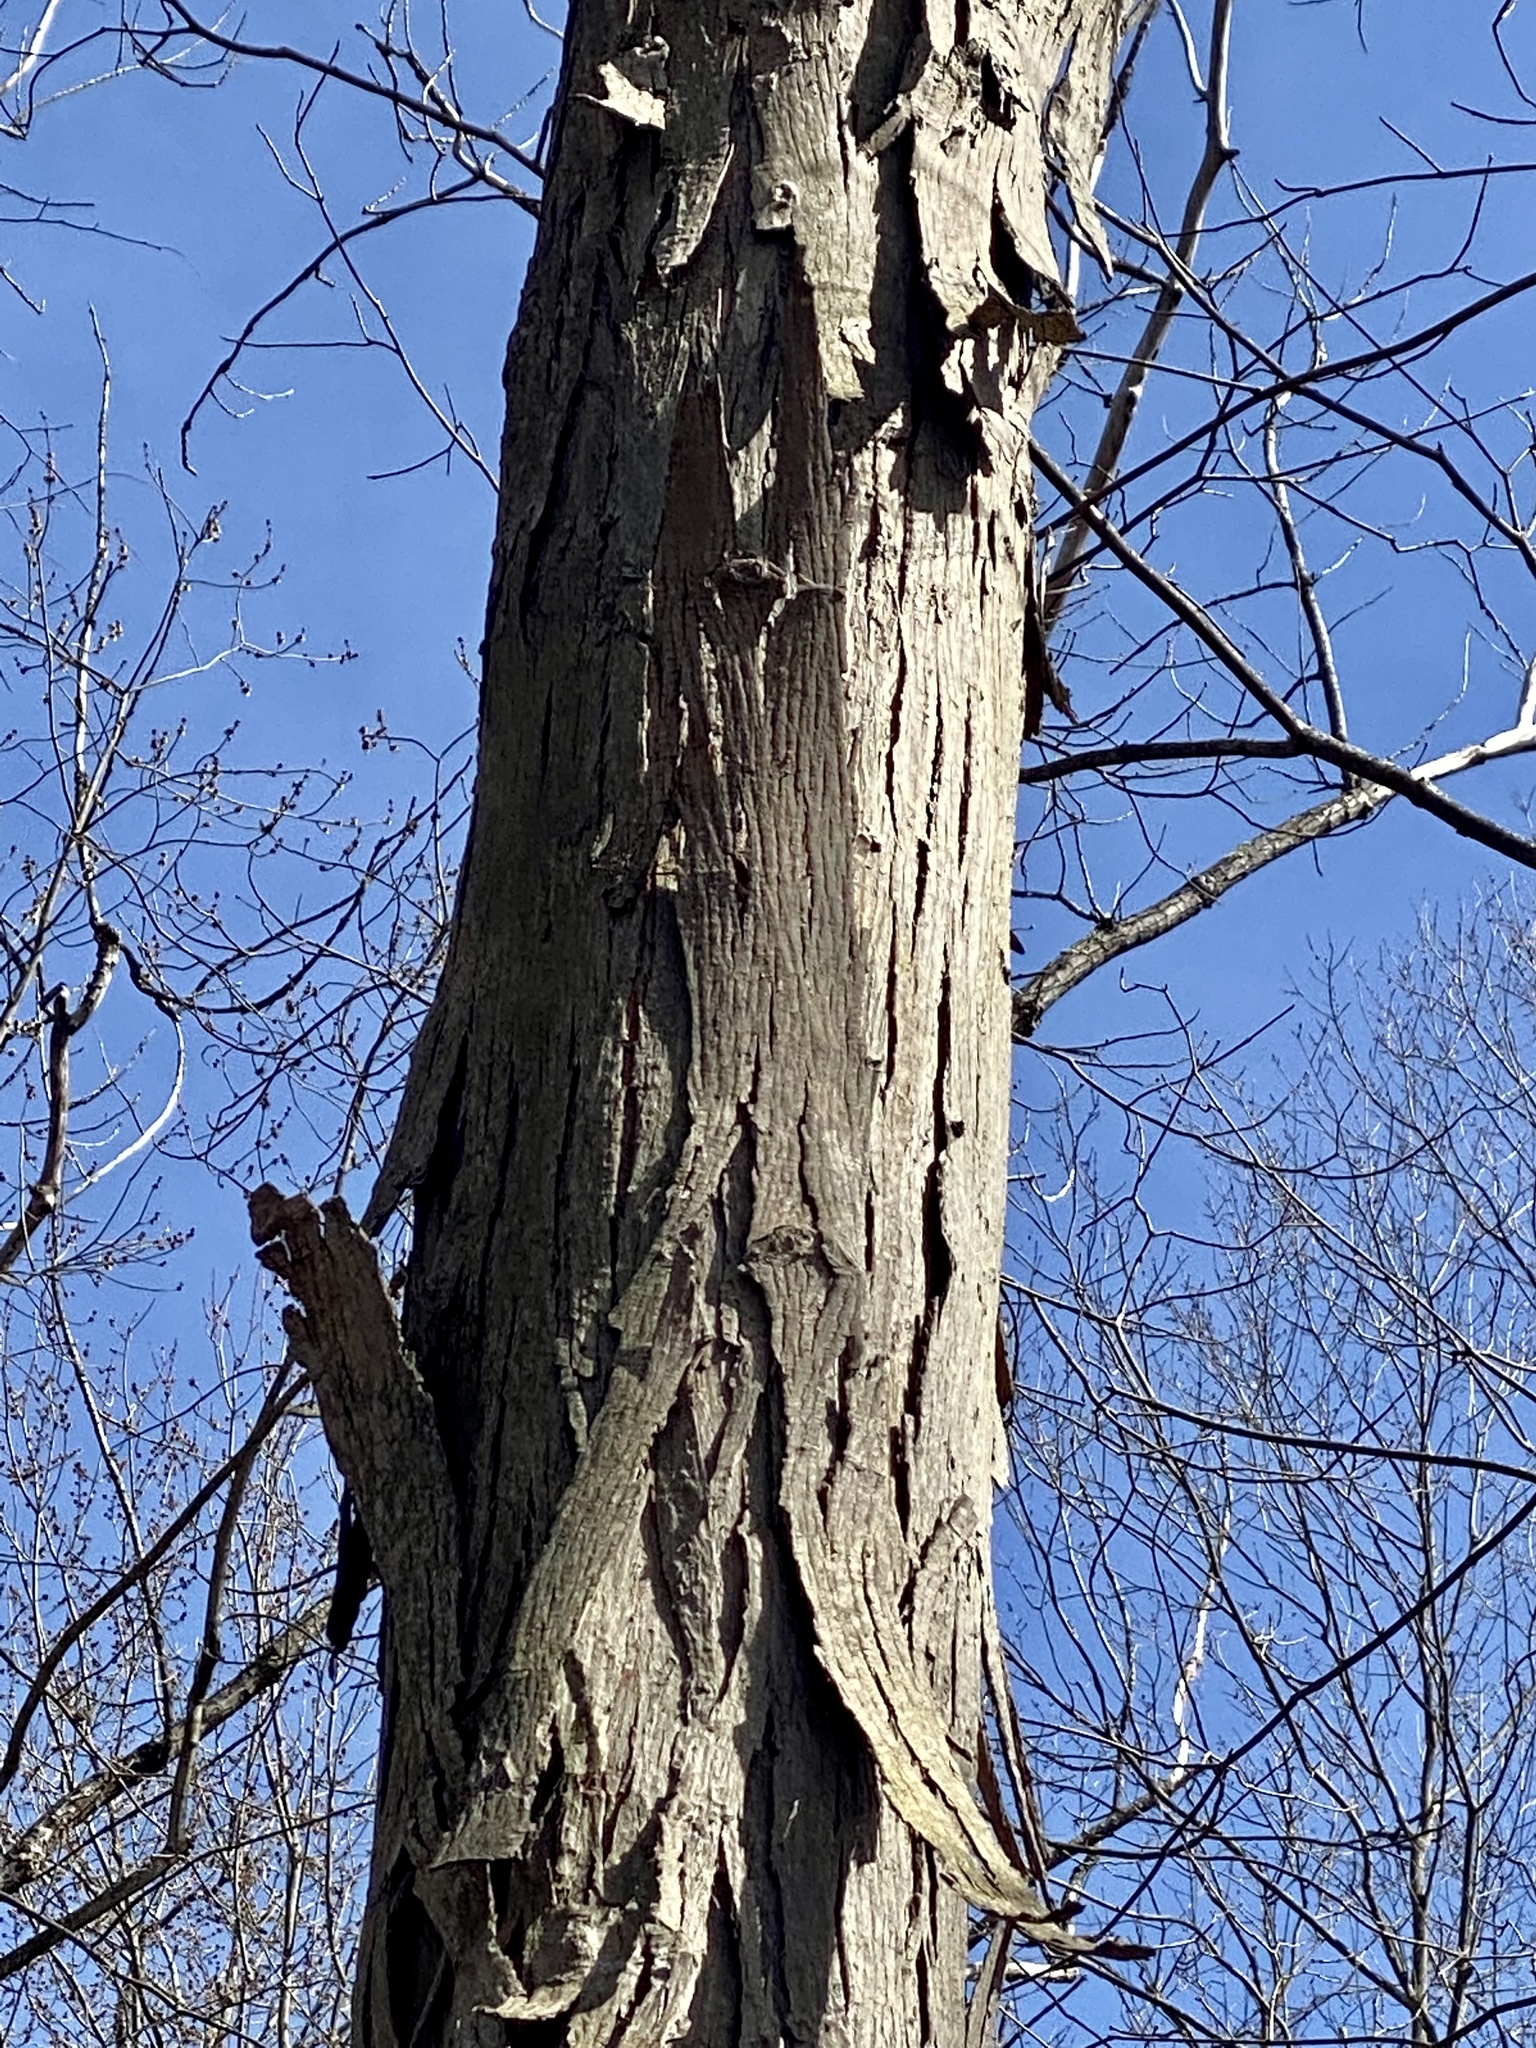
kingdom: Plantae
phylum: Tracheophyta
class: Magnoliopsida
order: Fagales
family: Juglandaceae
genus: Carya
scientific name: Carya ovata
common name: Shagbark hickory
